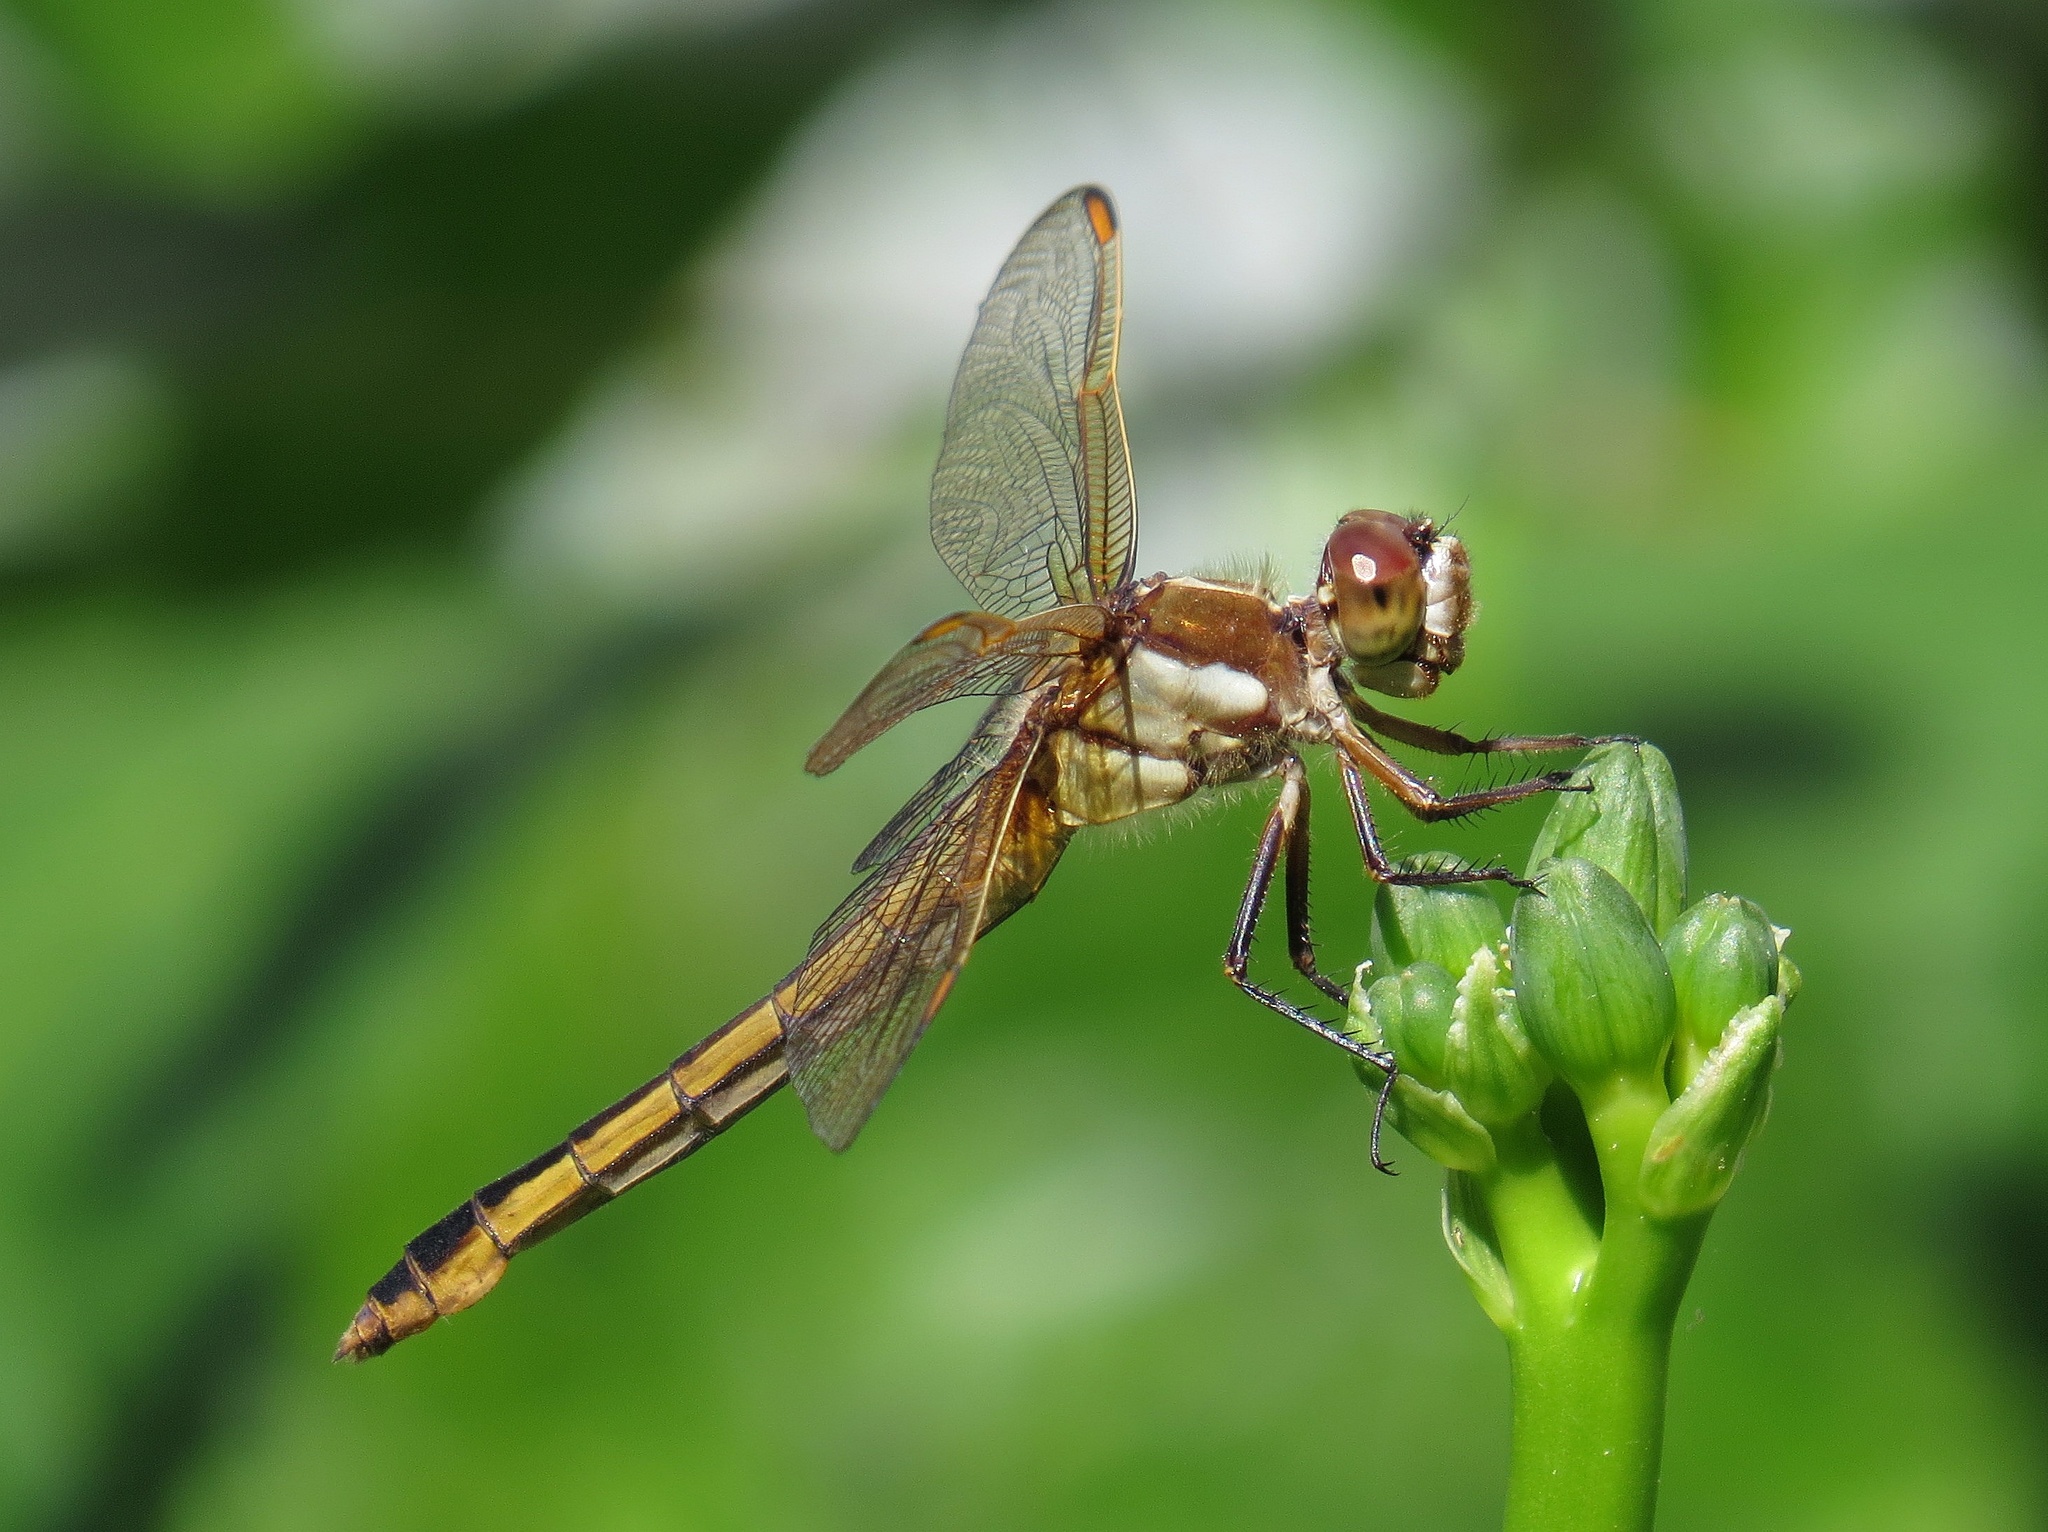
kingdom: Animalia
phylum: Arthropoda
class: Insecta
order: Odonata
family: Libellulidae
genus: Libellula
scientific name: Libellula auripennis
